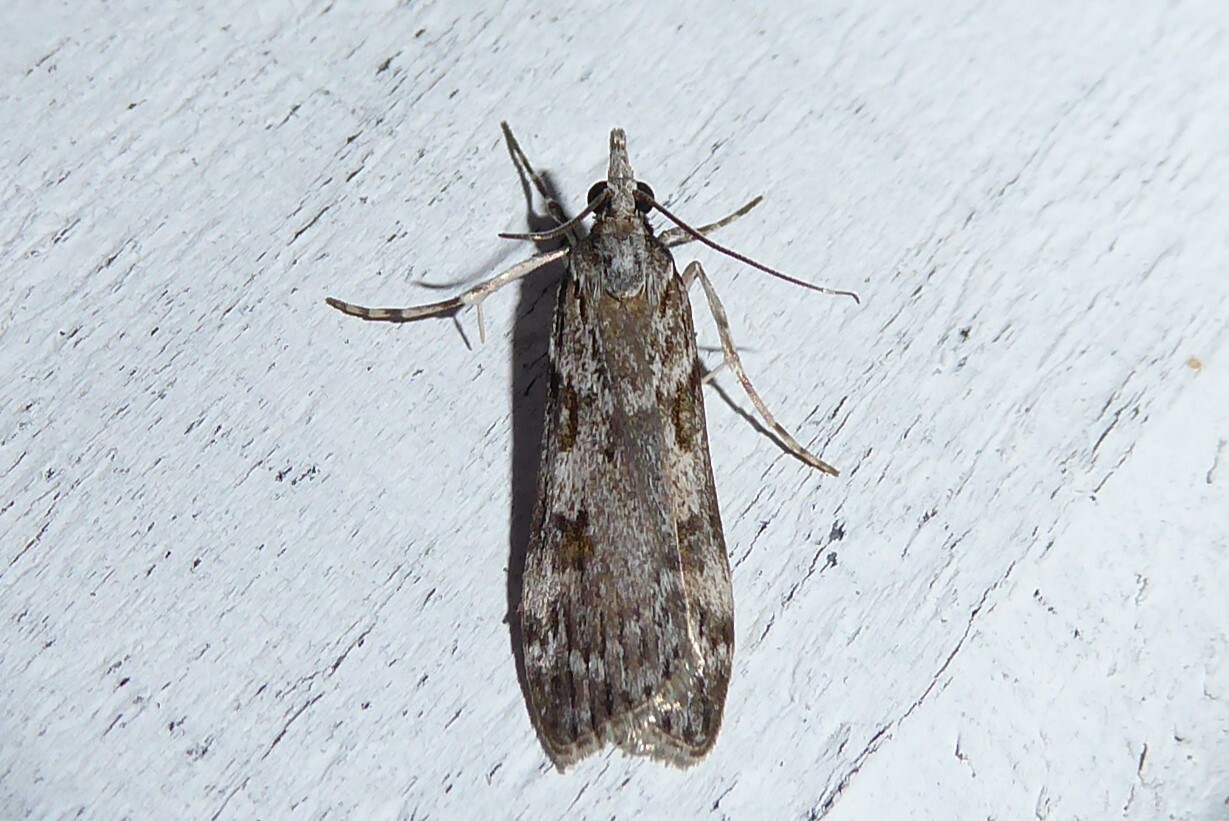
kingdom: Animalia
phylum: Arthropoda
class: Insecta
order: Lepidoptera
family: Crambidae
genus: Scoparia
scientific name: Scoparia halopis
